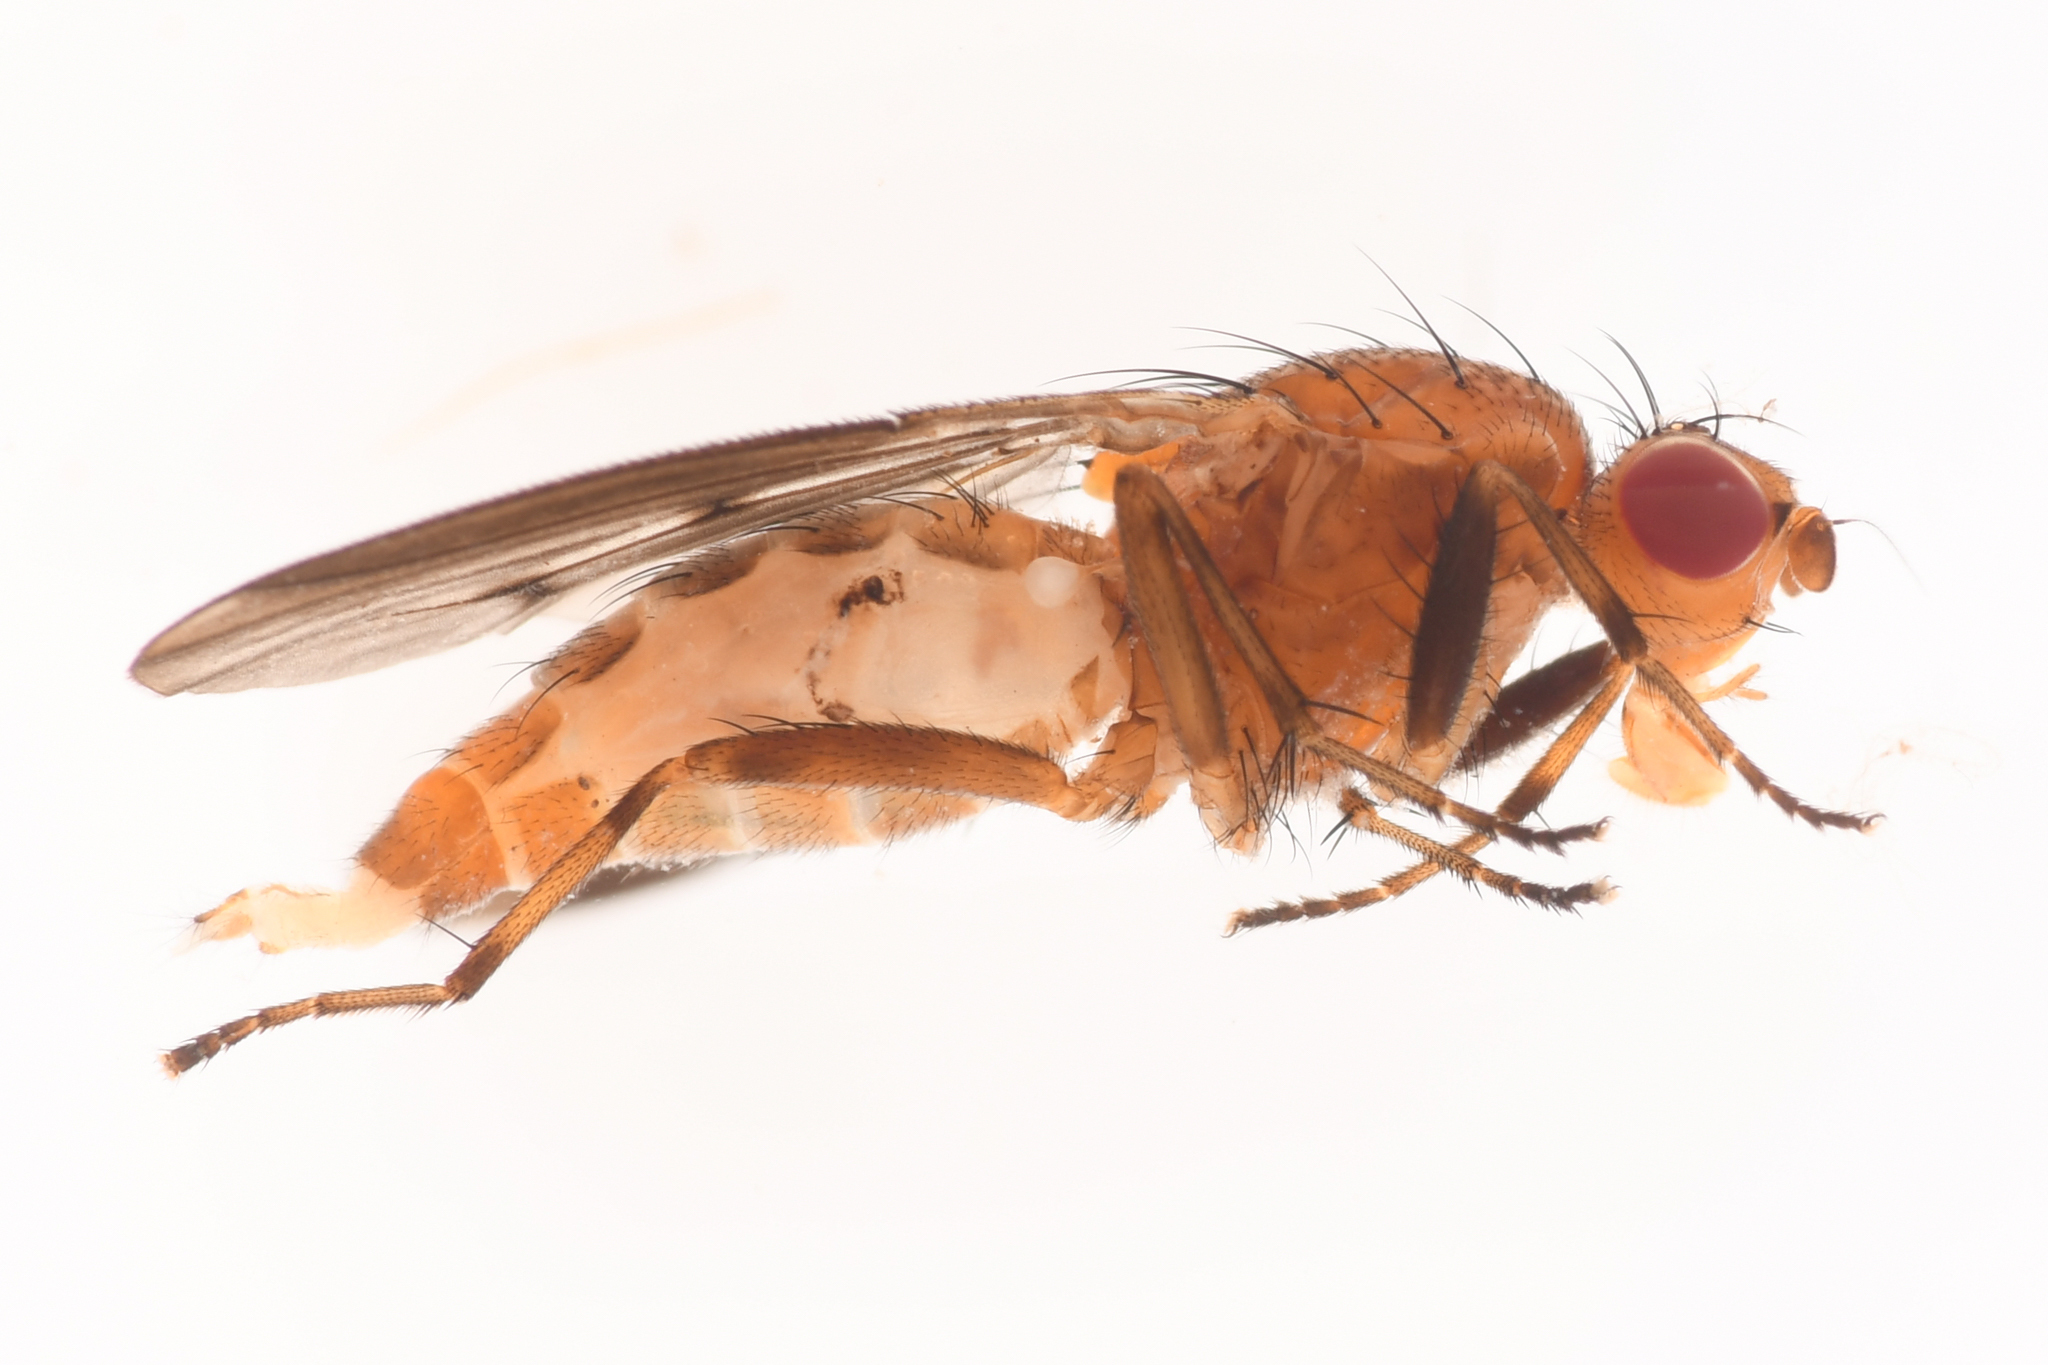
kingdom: Animalia
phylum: Arthropoda
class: Insecta
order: Diptera
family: Heleomyzidae
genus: Suillia
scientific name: Suillia barberi
